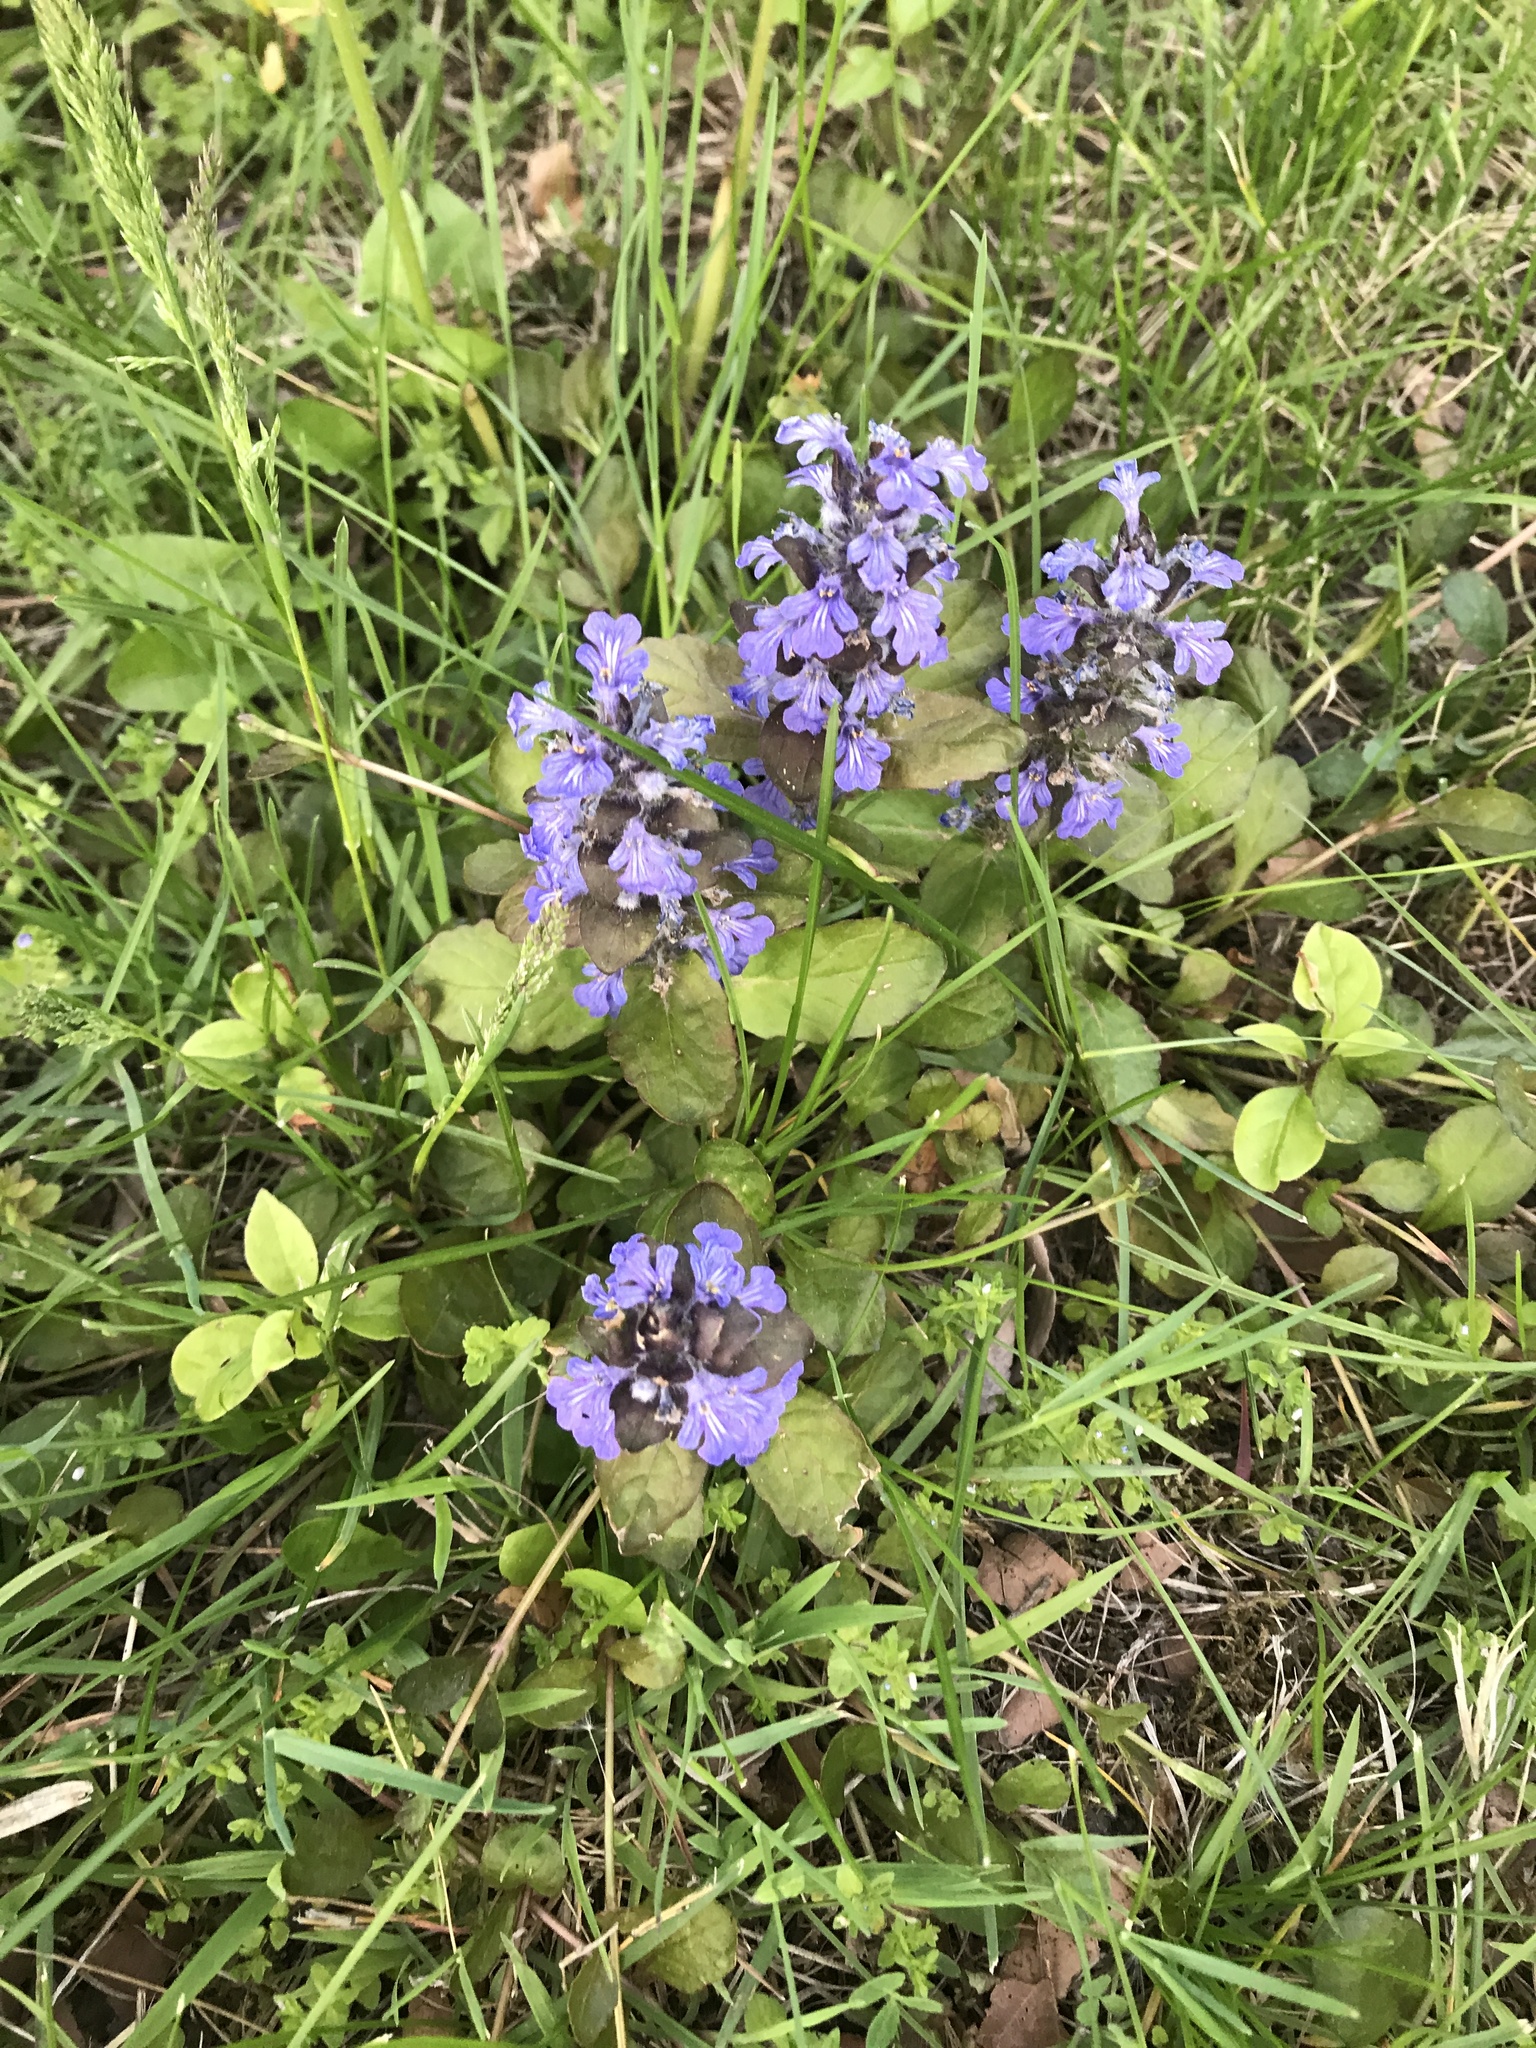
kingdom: Plantae
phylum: Tracheophyta
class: Magnoliopsida
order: Lamiales
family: Lamiaceae
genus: Ajuga
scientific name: Ajuga reptans
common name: Bugle
